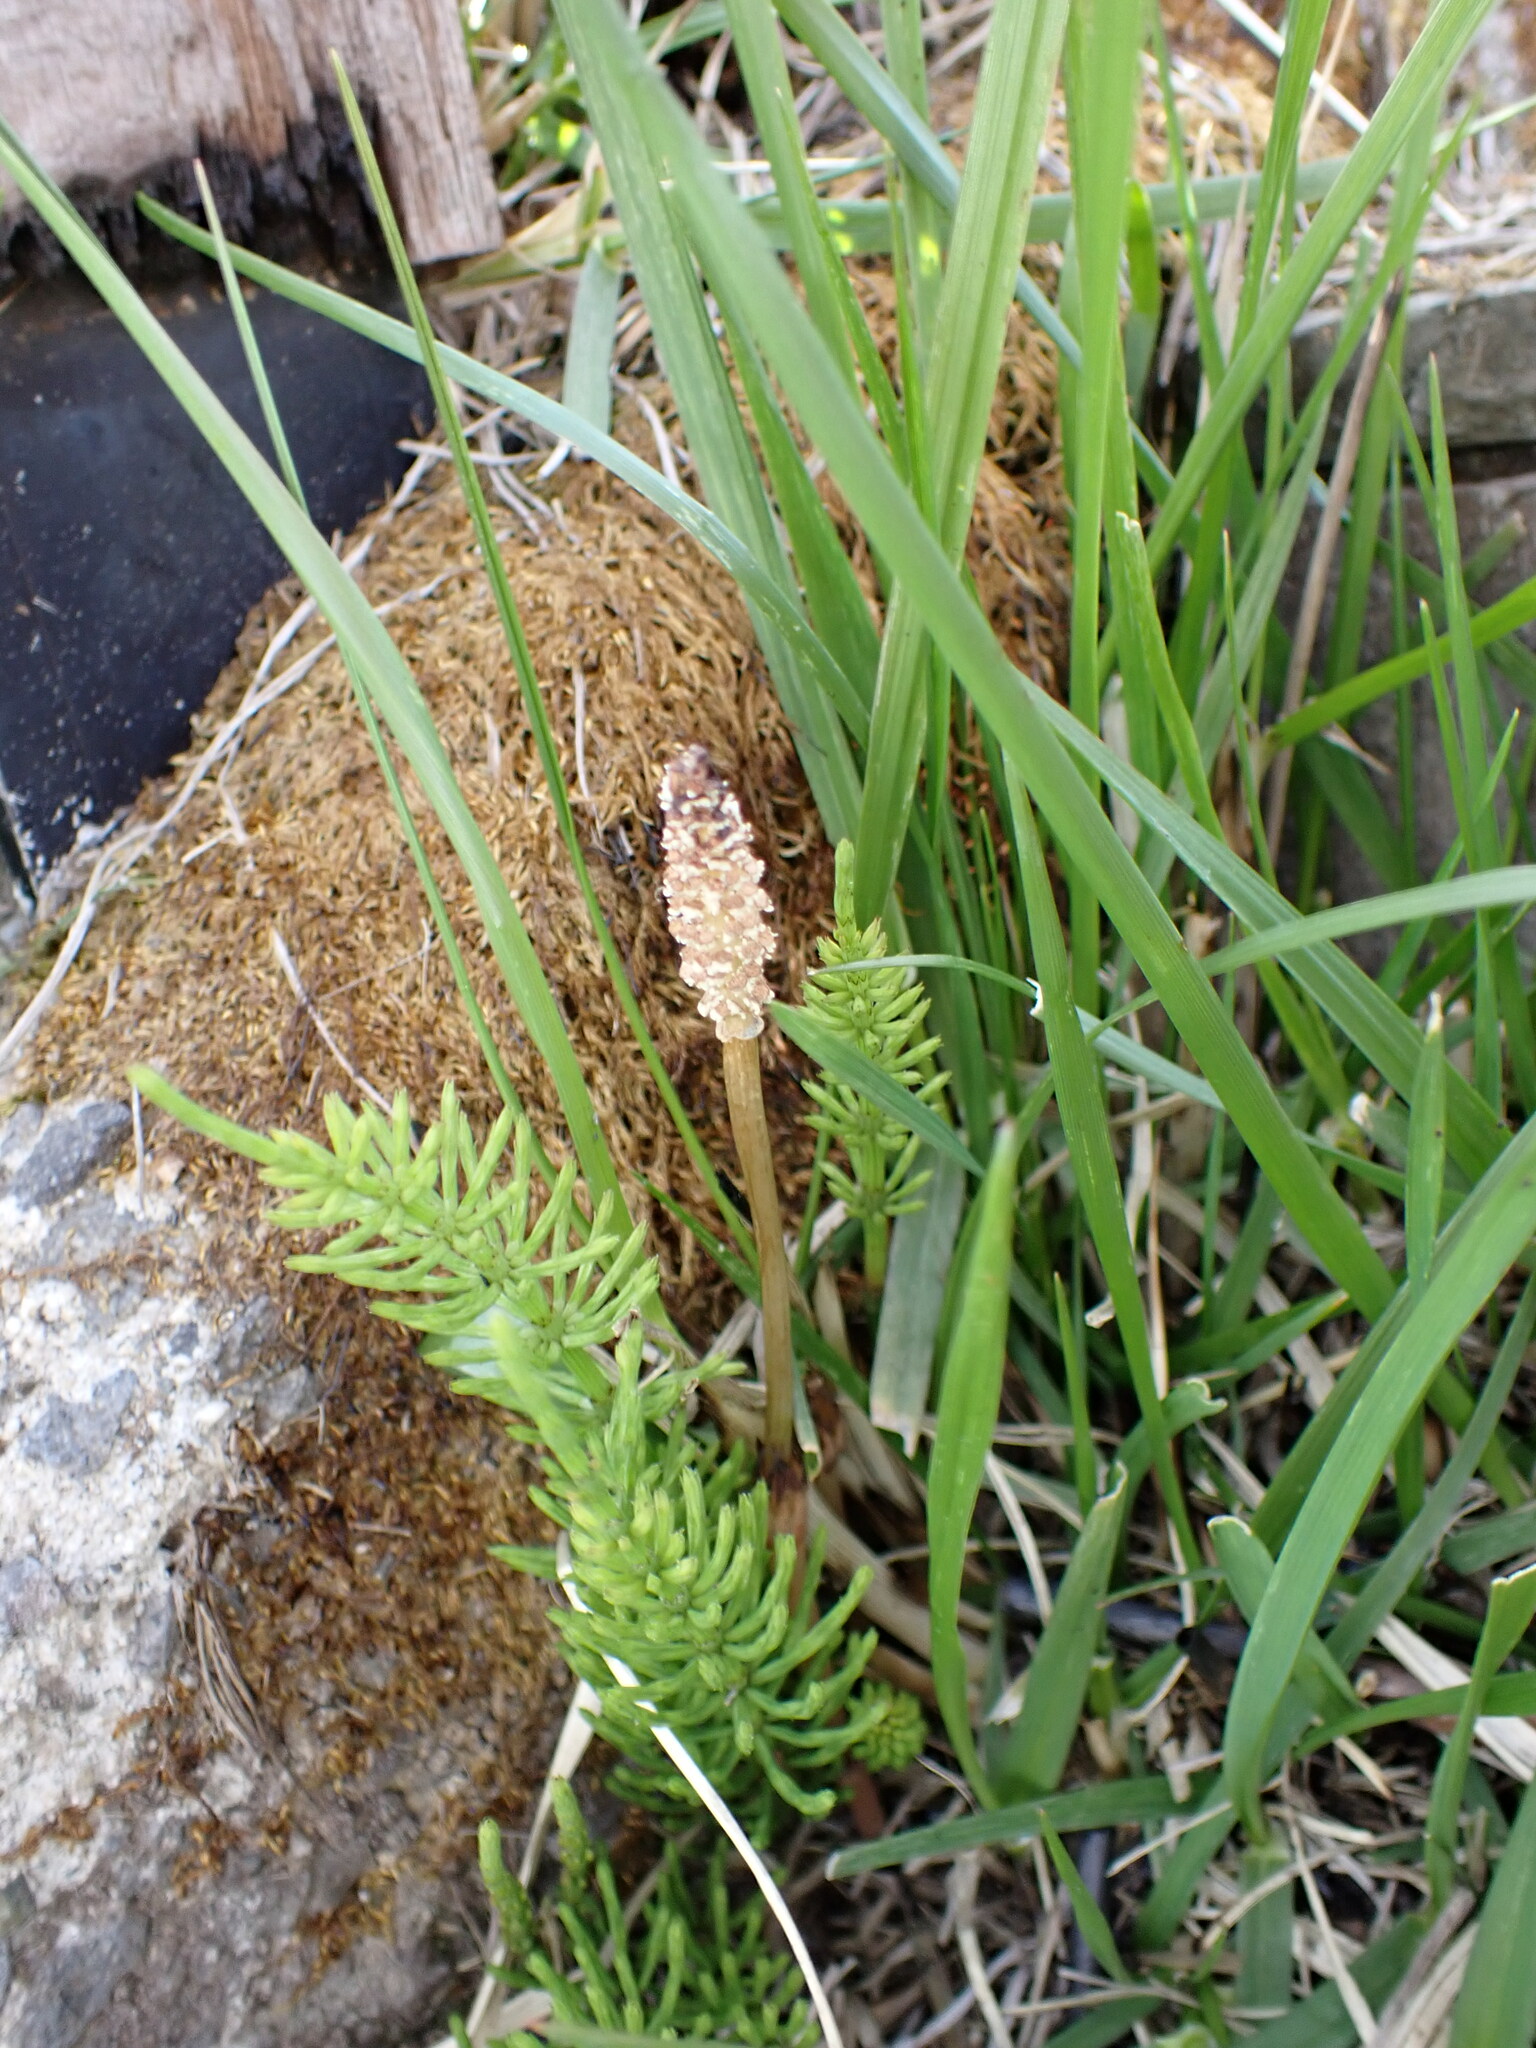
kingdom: Plantae
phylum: Tracheophyta
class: Polypodiopsida
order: Equisetales
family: Equisetaceae
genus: Equisetum
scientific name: Equisetum arvense
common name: Field horsetail
